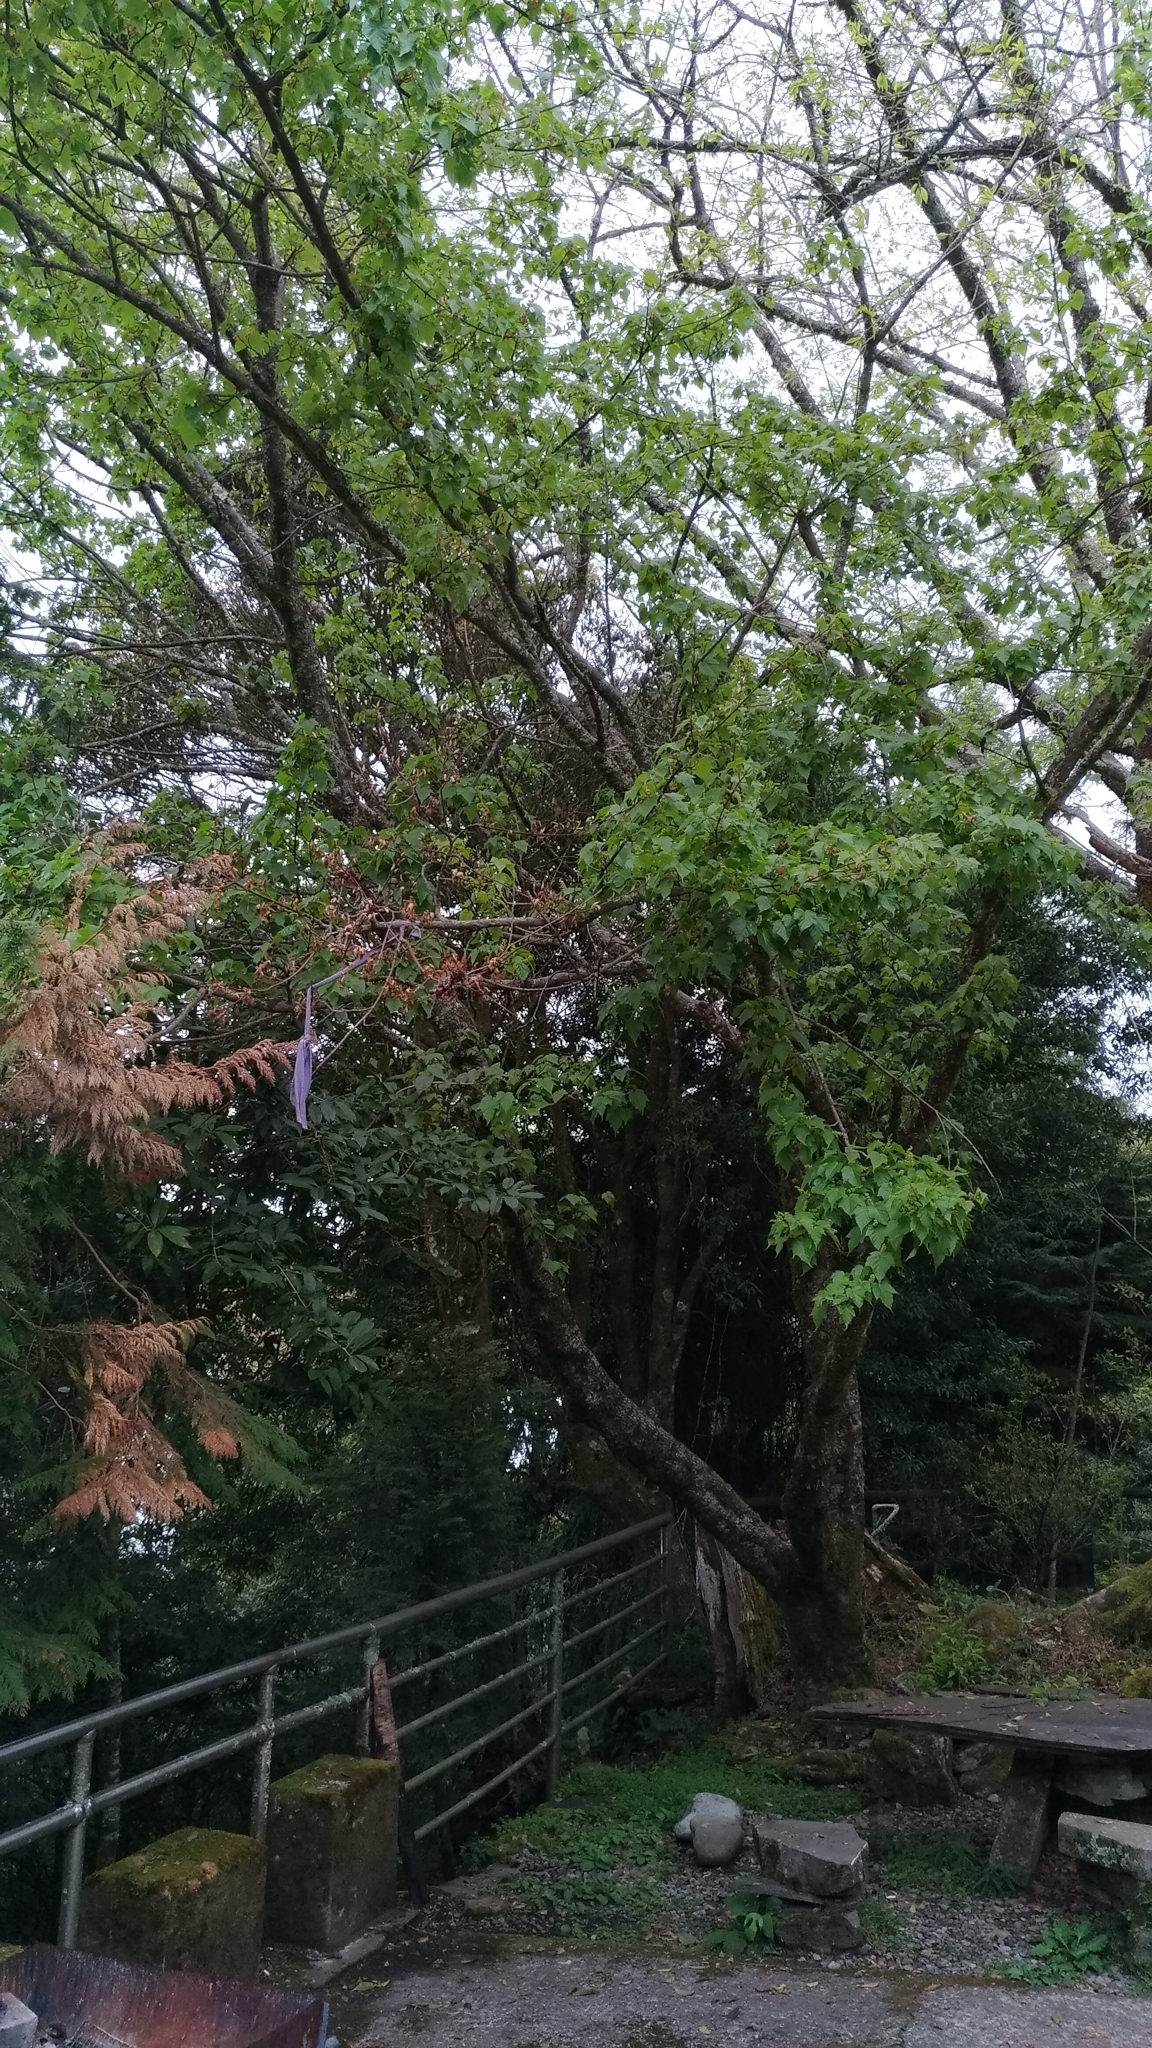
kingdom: Plantae
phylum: Tracheophyta
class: Magnoliopsida
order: Sapindales
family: Sapindaceae
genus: Acer
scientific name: Acer caudatifolium
